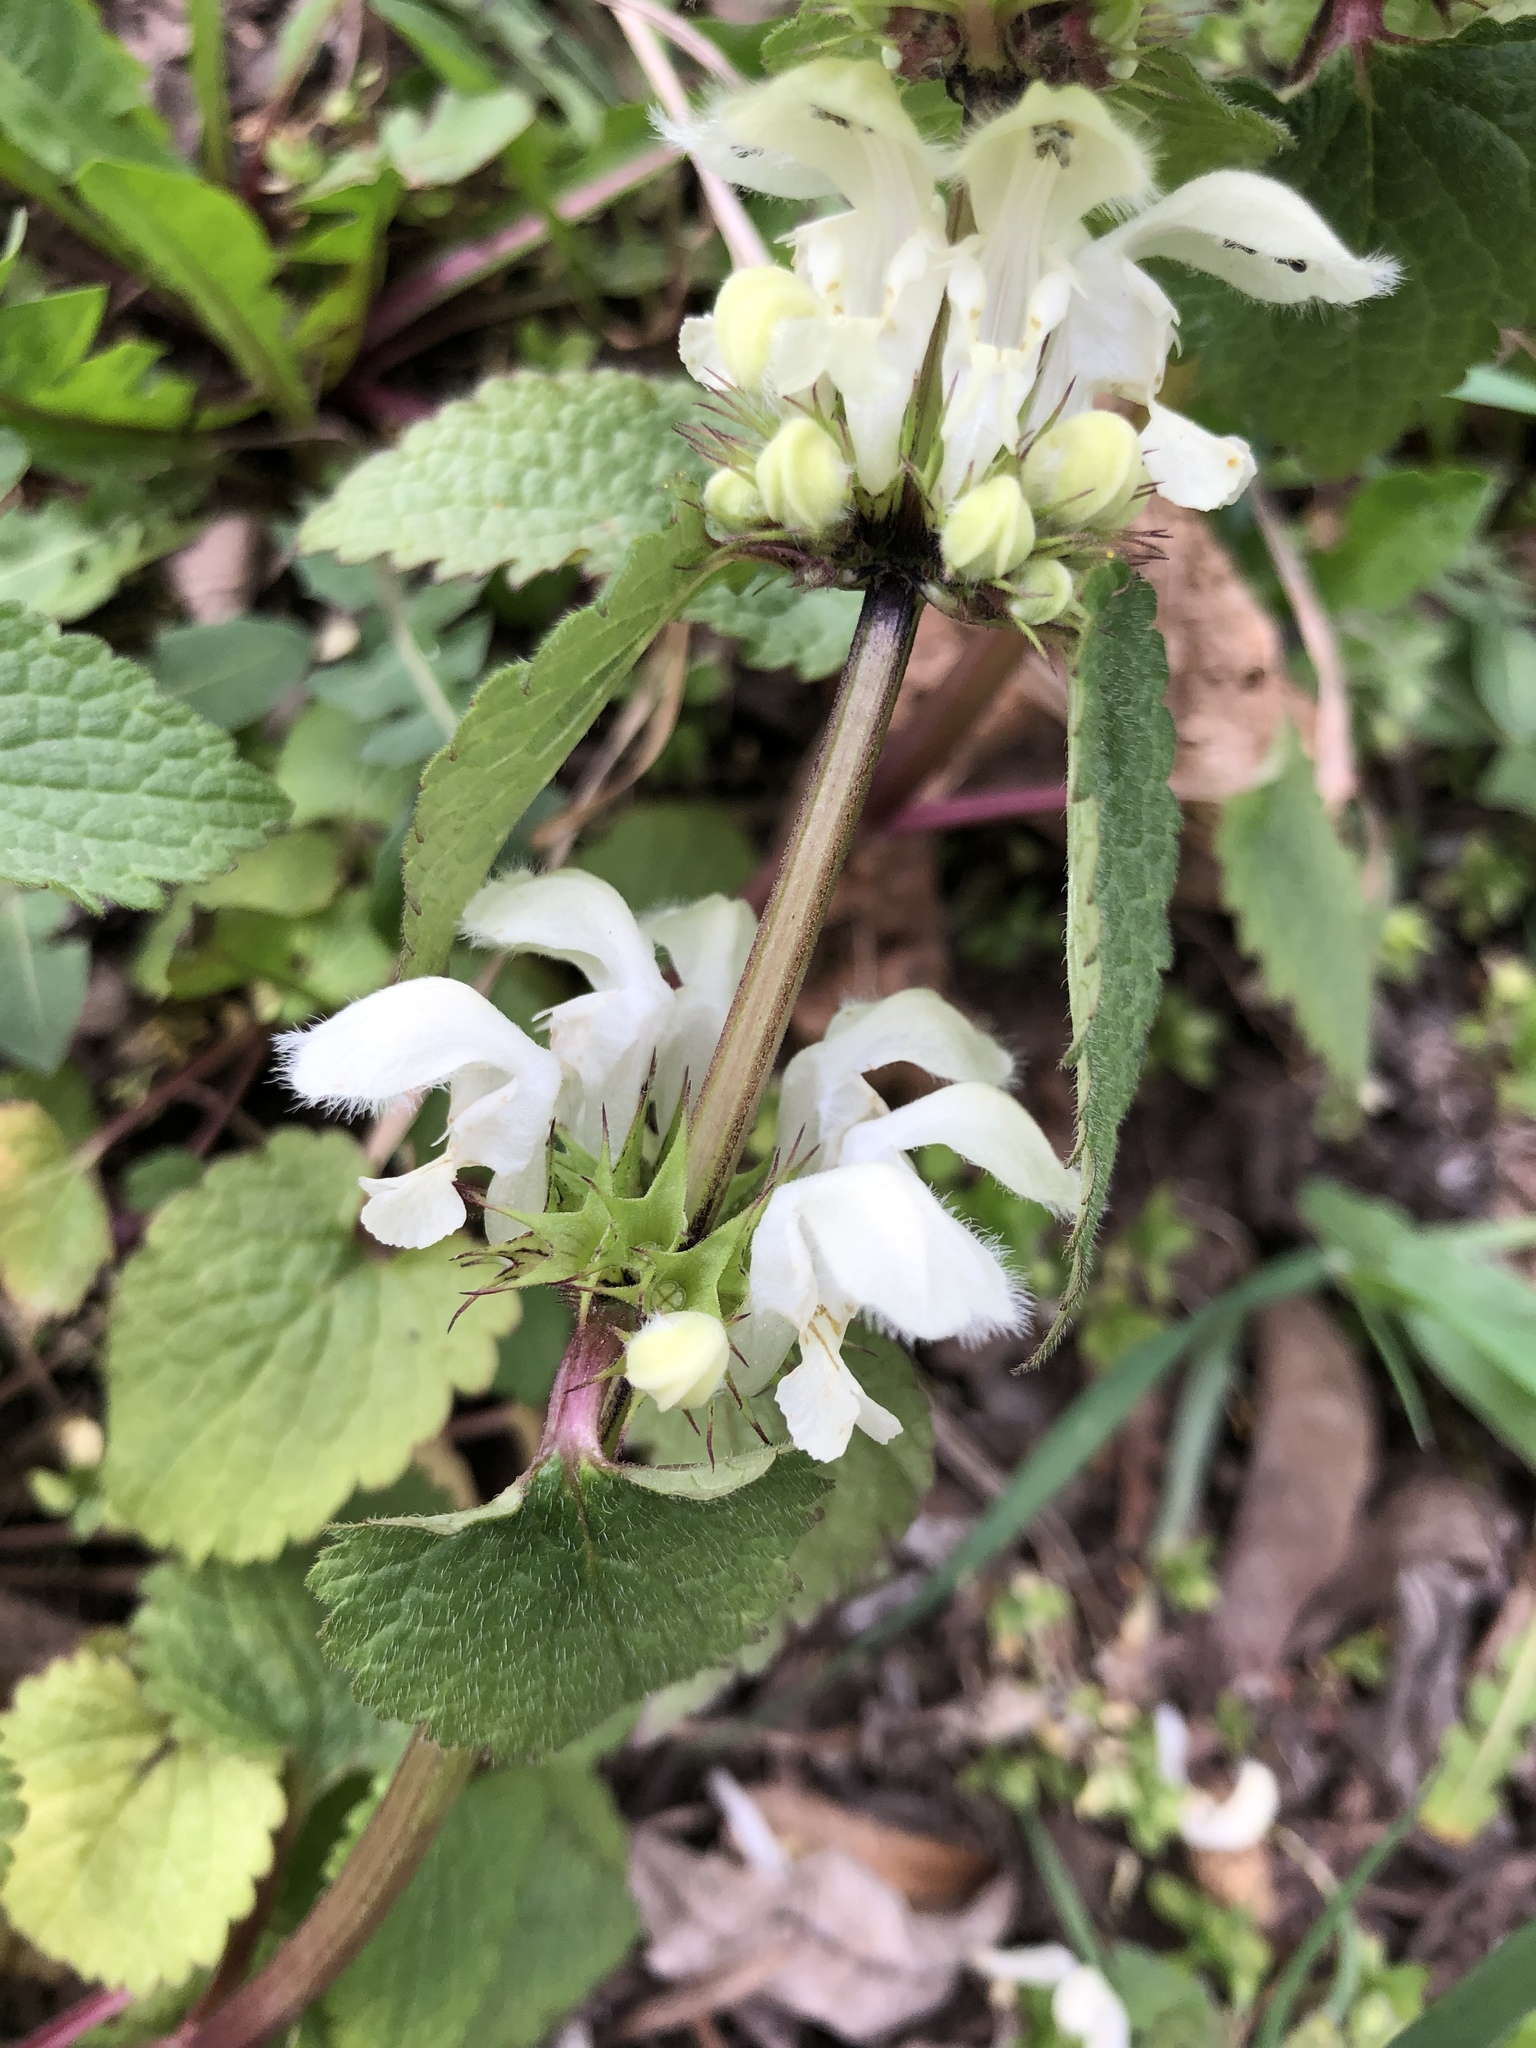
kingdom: Plantae
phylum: Tracheophyta
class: Magnoliopsida
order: Lamiales
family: Lamiaceae
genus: Lamium
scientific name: Lamium album
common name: White dead-nettle
